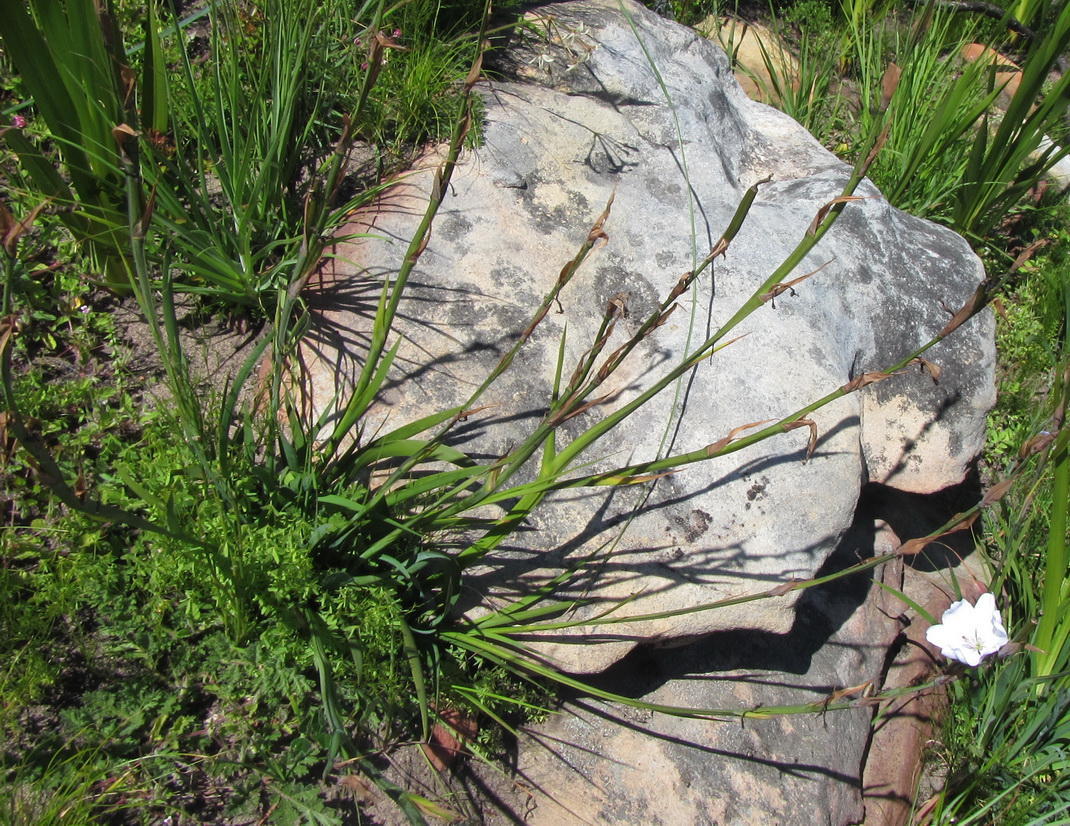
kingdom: Plantae
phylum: Tracheophyta
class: Liliopsida
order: Asparagales
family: Iridaceae
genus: Aristea
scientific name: Aristea spiralis
